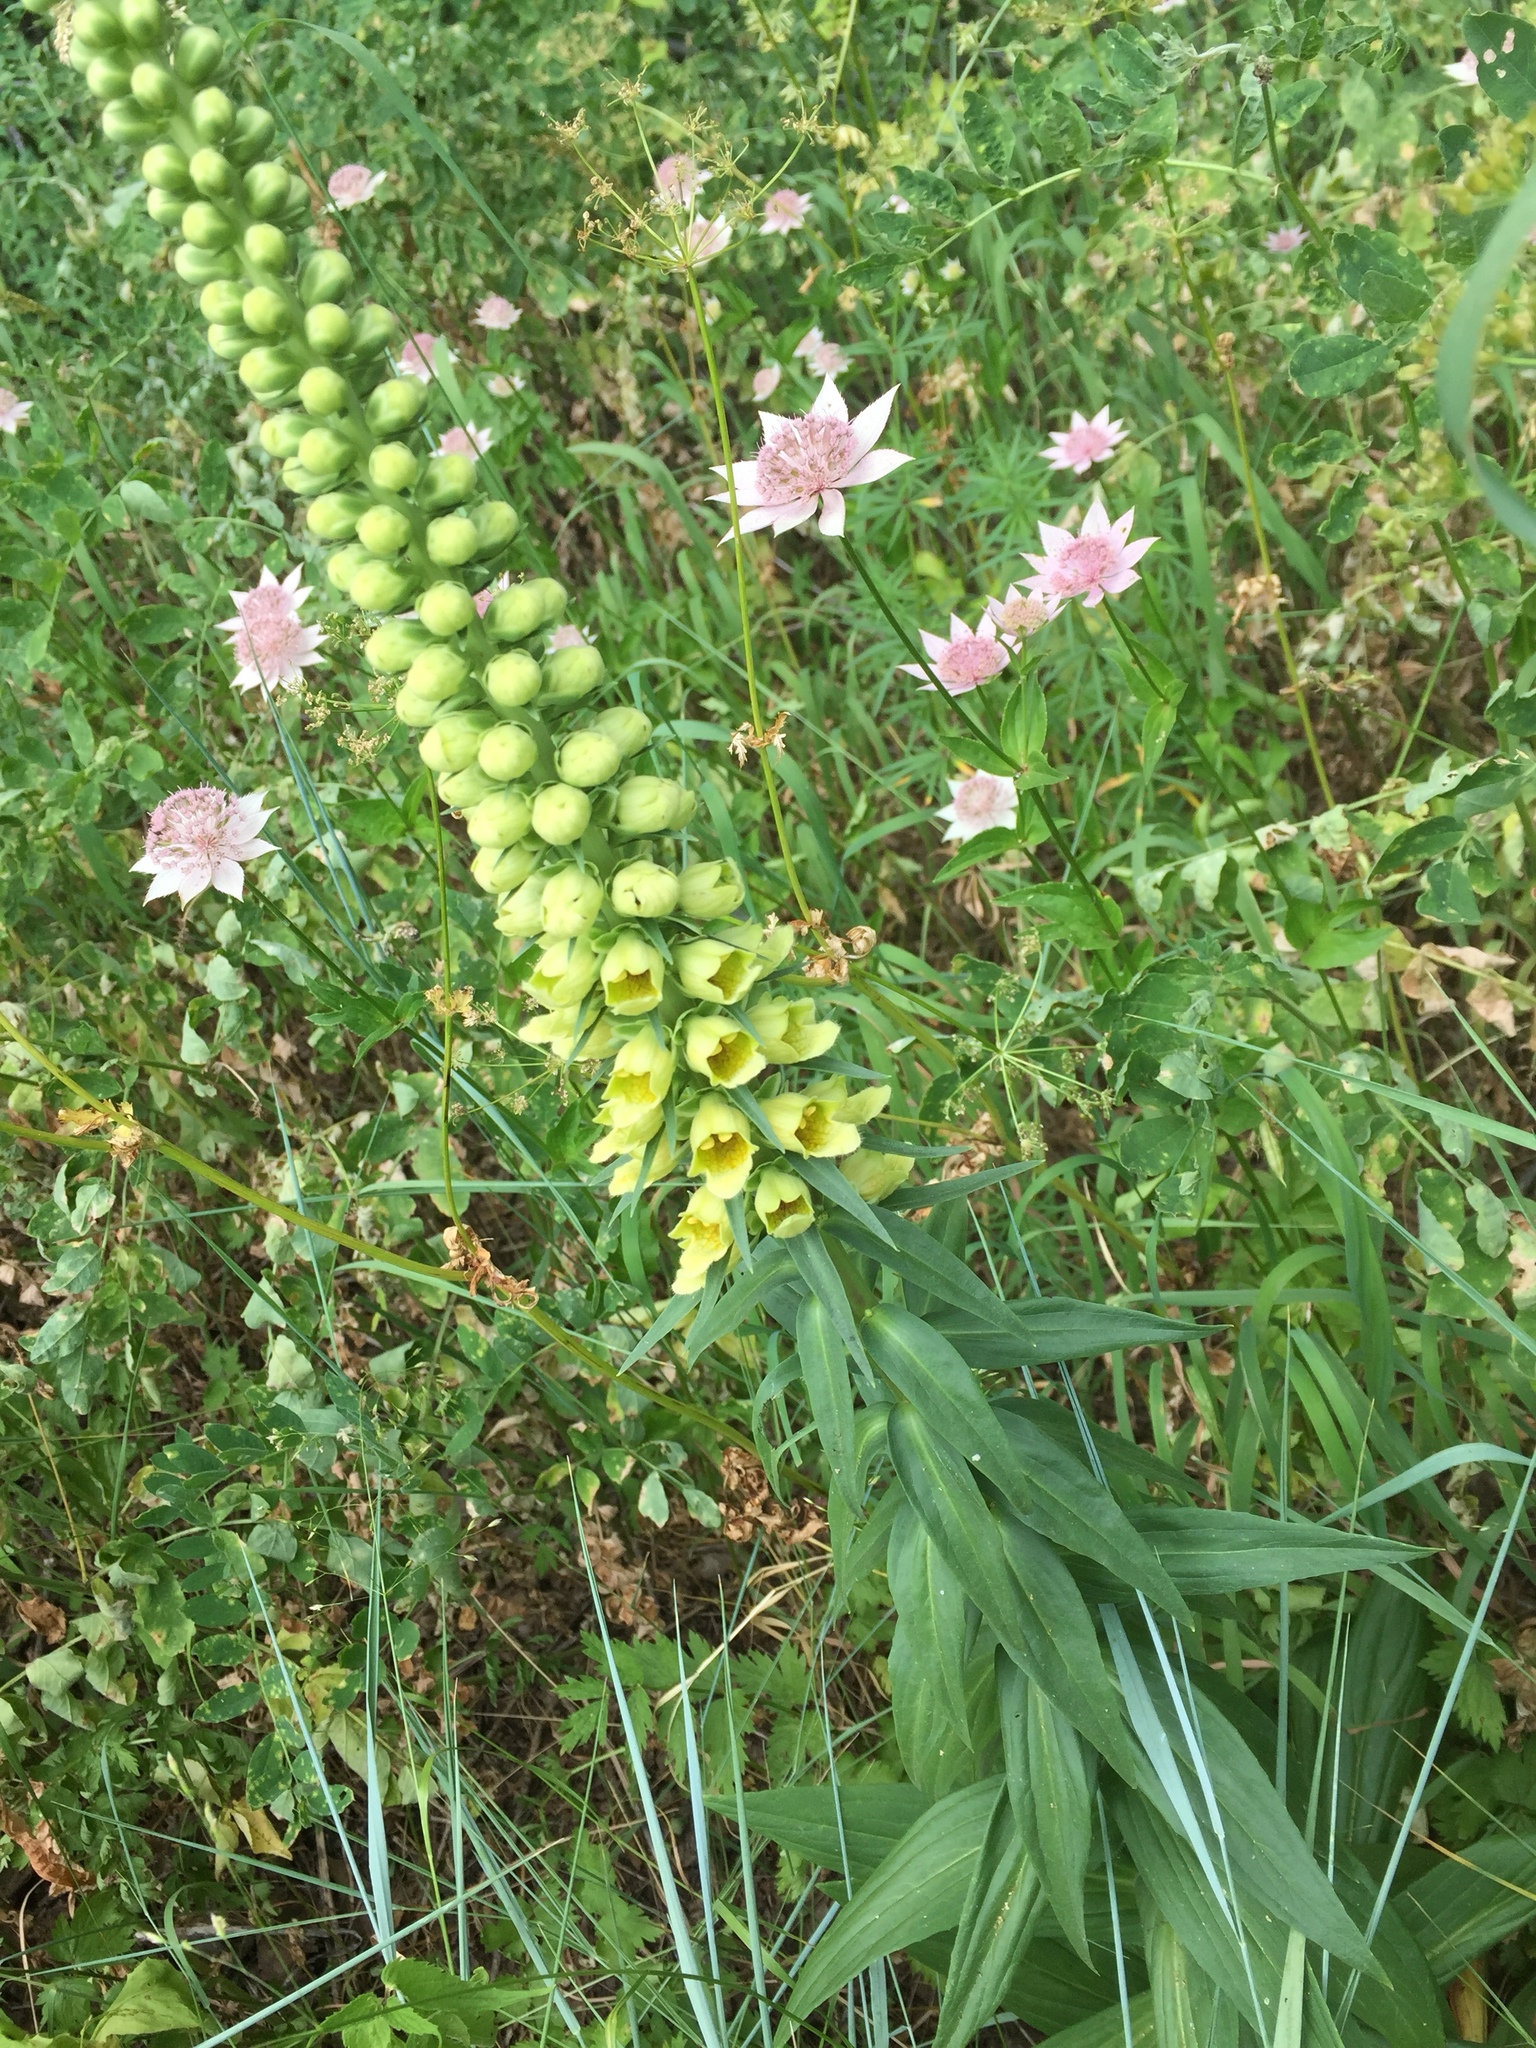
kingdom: Plantae
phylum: Tracheophyta
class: Magnoliopsida
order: Lamiales
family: Plantaginaceae
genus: Digitalis
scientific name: Digitalis ferruginea
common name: Rusty foxglove
